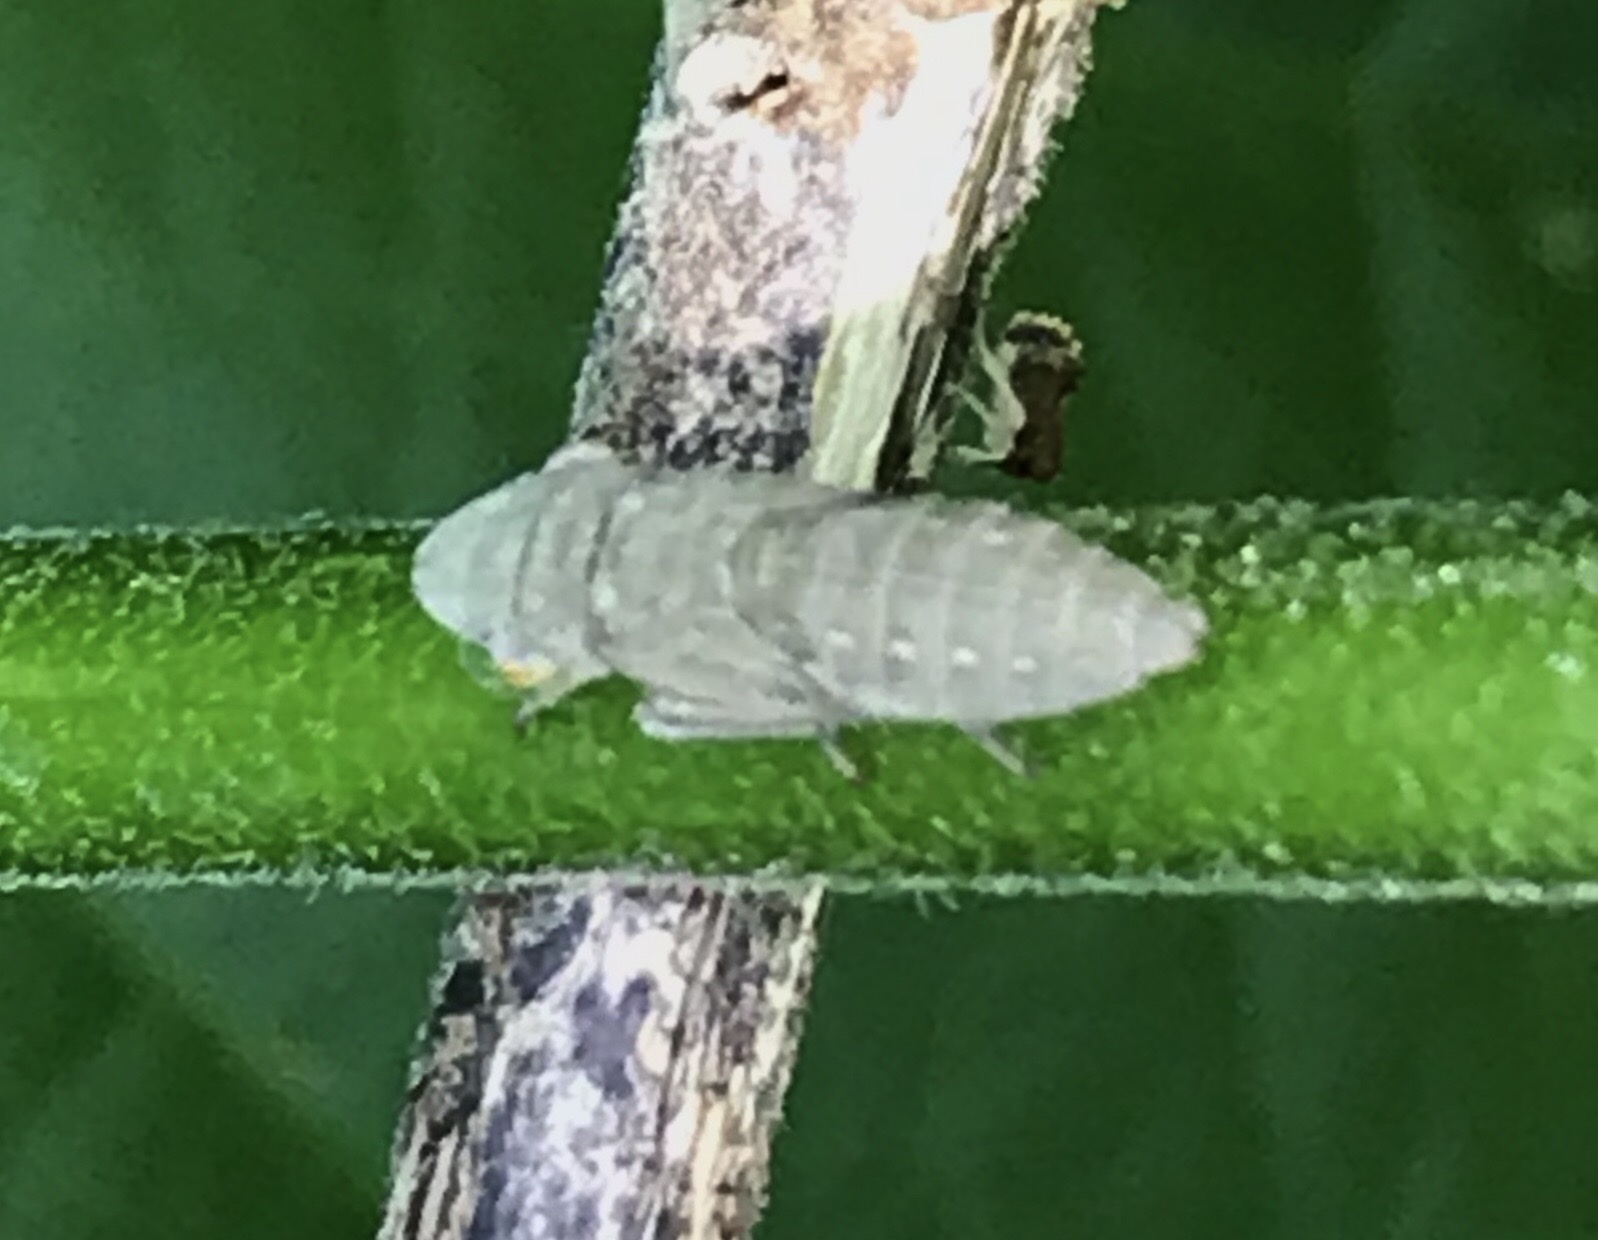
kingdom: Animalia
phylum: Arthropoda
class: Insecta
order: Hemiptera
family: Cicadellidae
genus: Homalodisca
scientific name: Homalodisca vitripennis
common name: Glassy-winged sharpshooter
